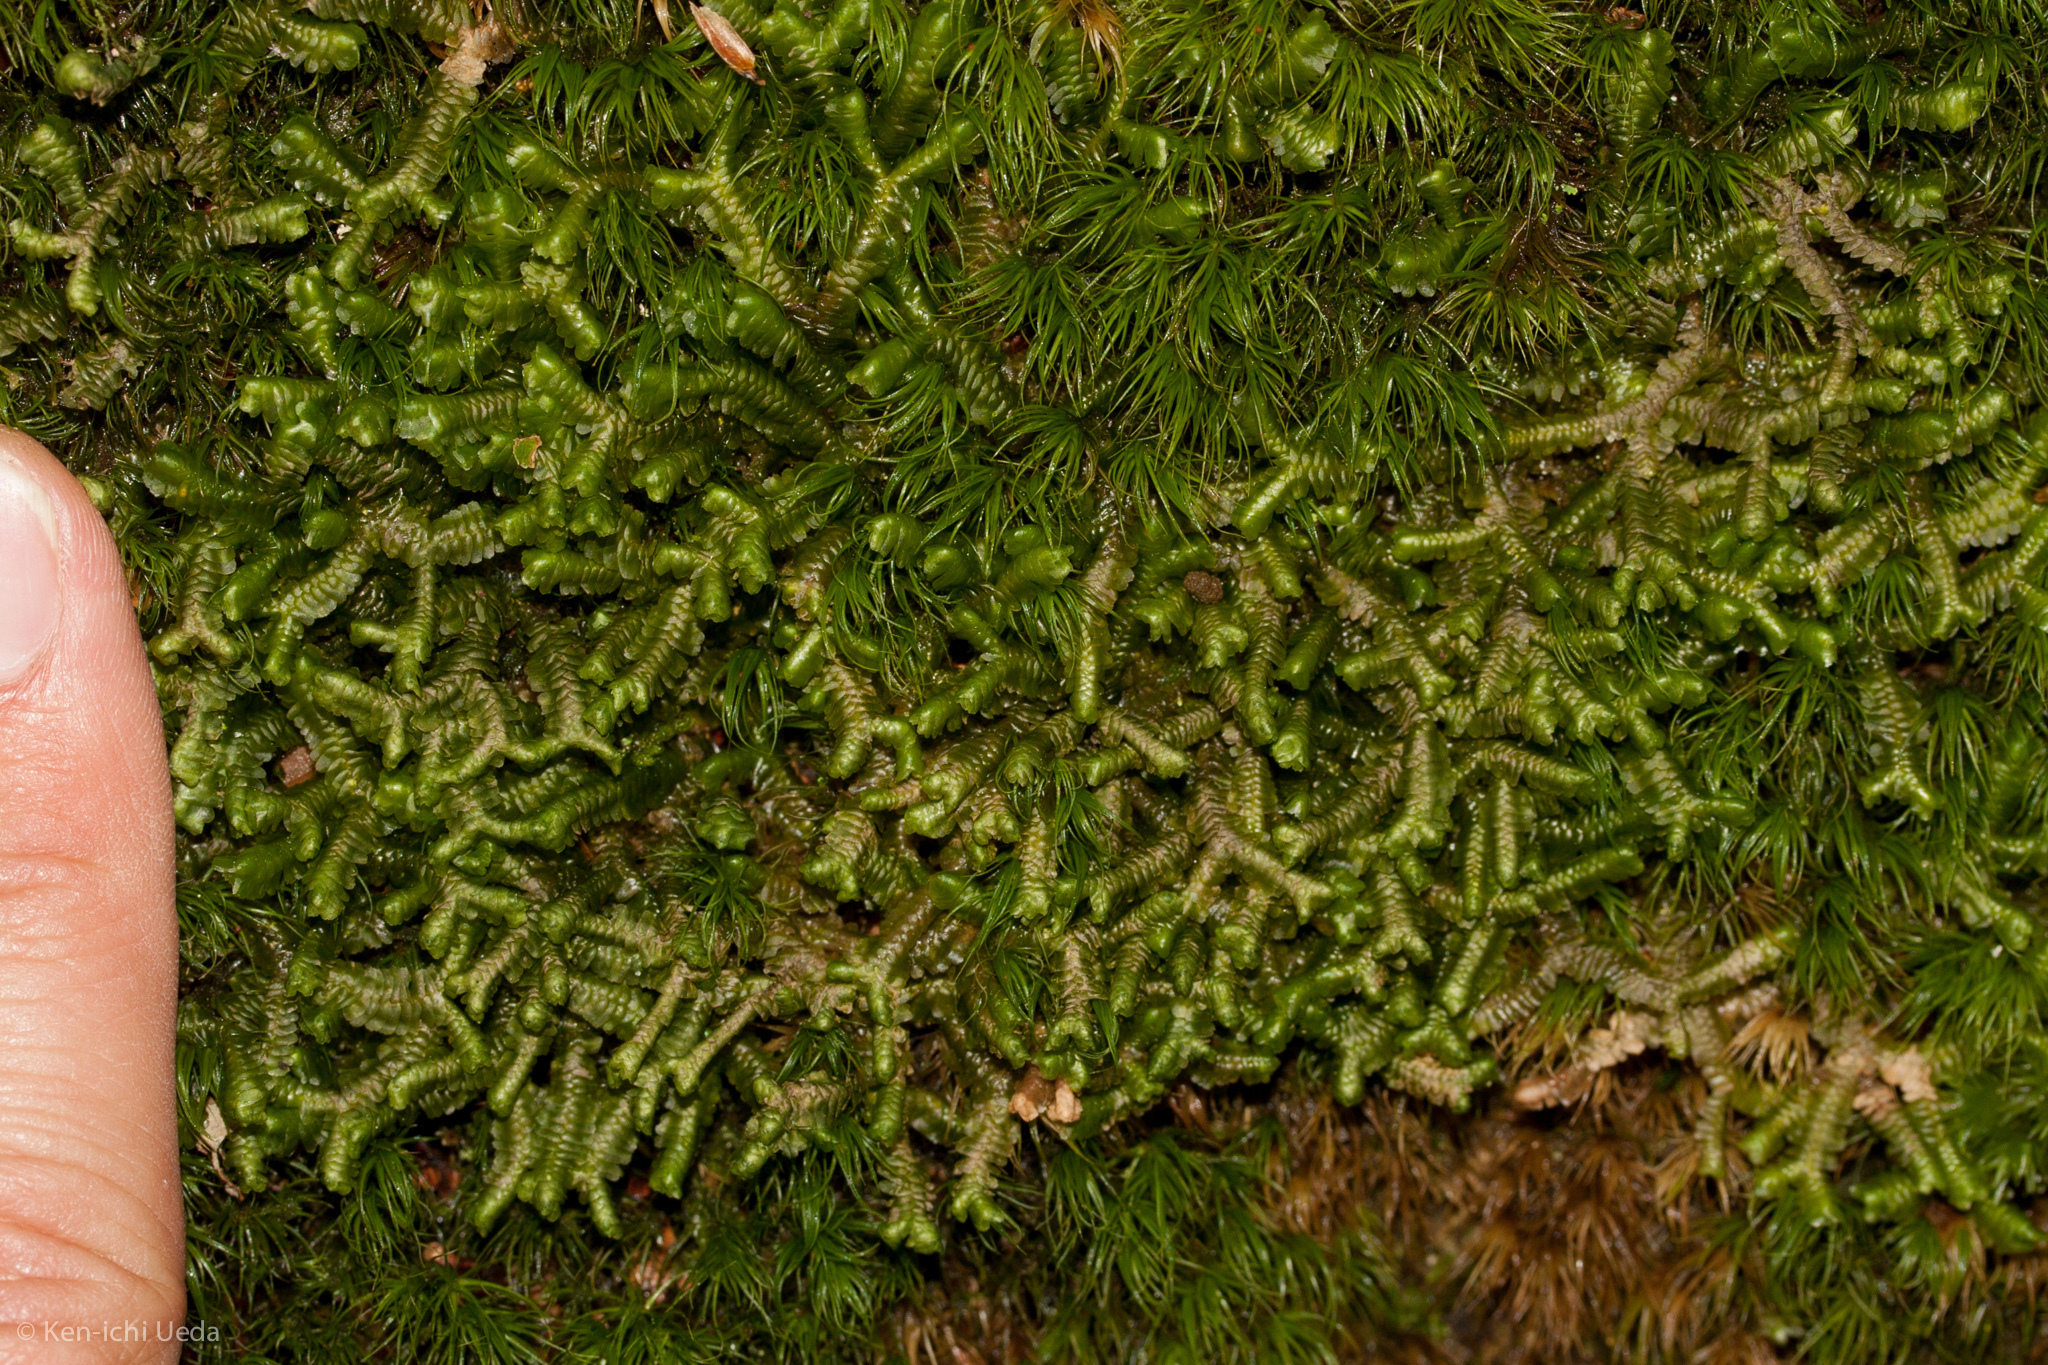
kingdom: Plantae
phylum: Marchantiophyta
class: Jungermanniopsida
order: Jungermanniales
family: Lepidoziaceae
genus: Bazzania
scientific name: Bazzania trilobata
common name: Three-lobed whipwort
